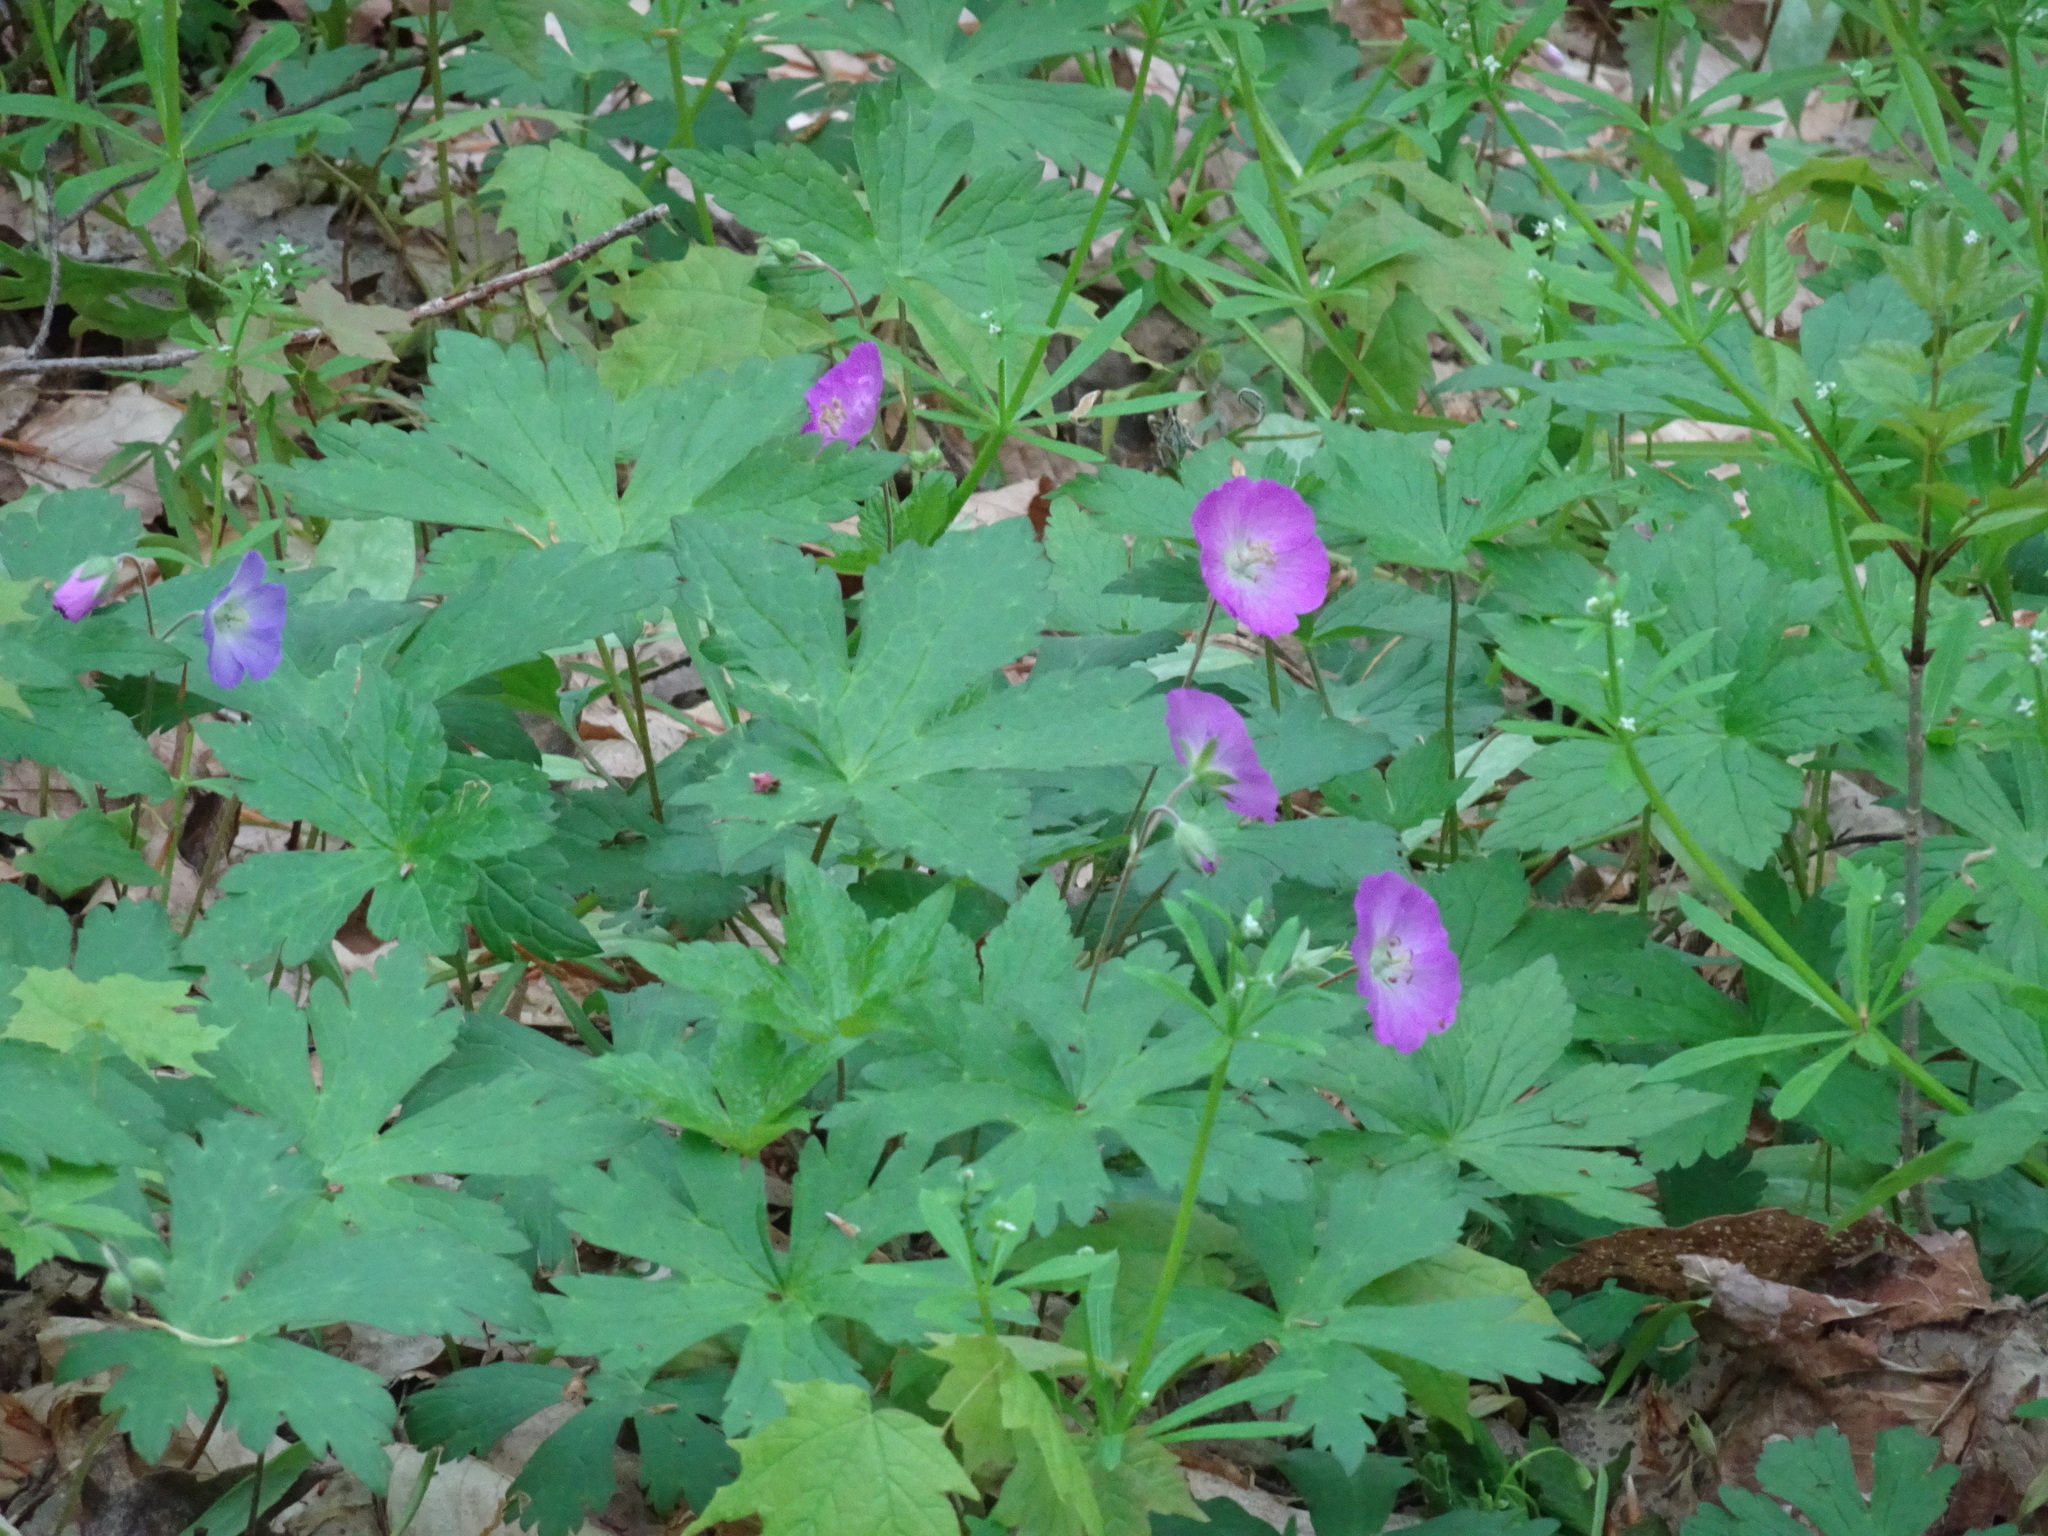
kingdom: Plantae
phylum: Tracheophyta
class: Magnoliopsida
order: Geraniales
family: Geraniaceae
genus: Geranium
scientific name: Geranium maculatum
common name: Spotted geranium
